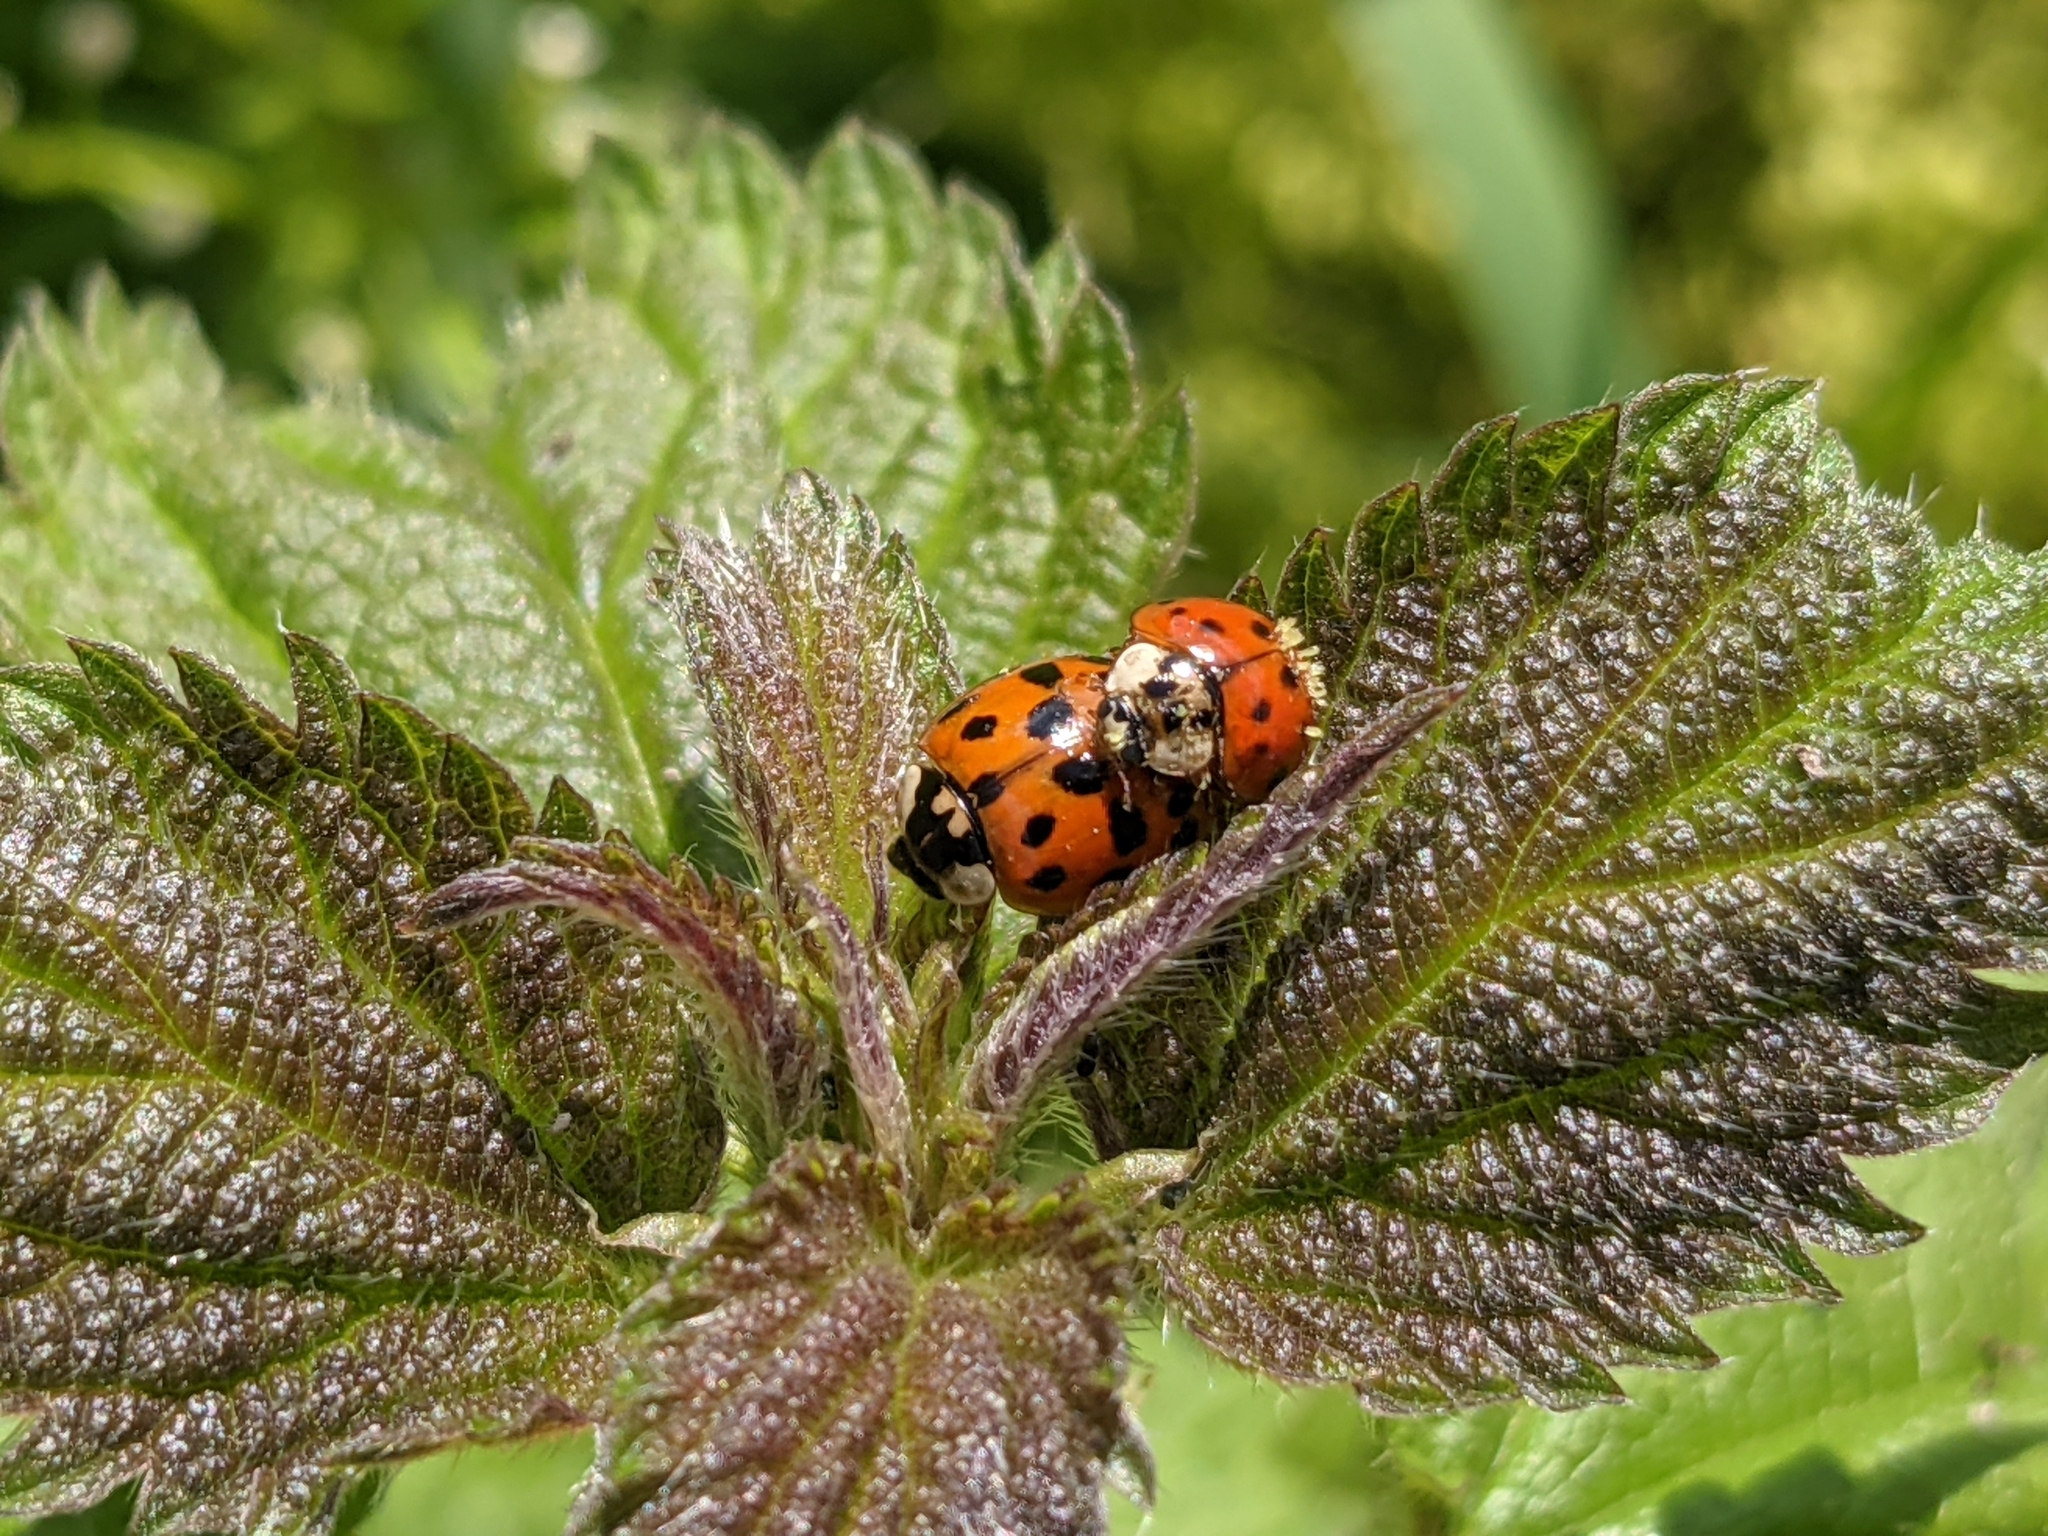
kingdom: Animalia
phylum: Arthropoda
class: Insecta
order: Coleoptera
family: Coccinellidae
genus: Harmonia
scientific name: Harmonia axyridis
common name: Harlequin ladybird
